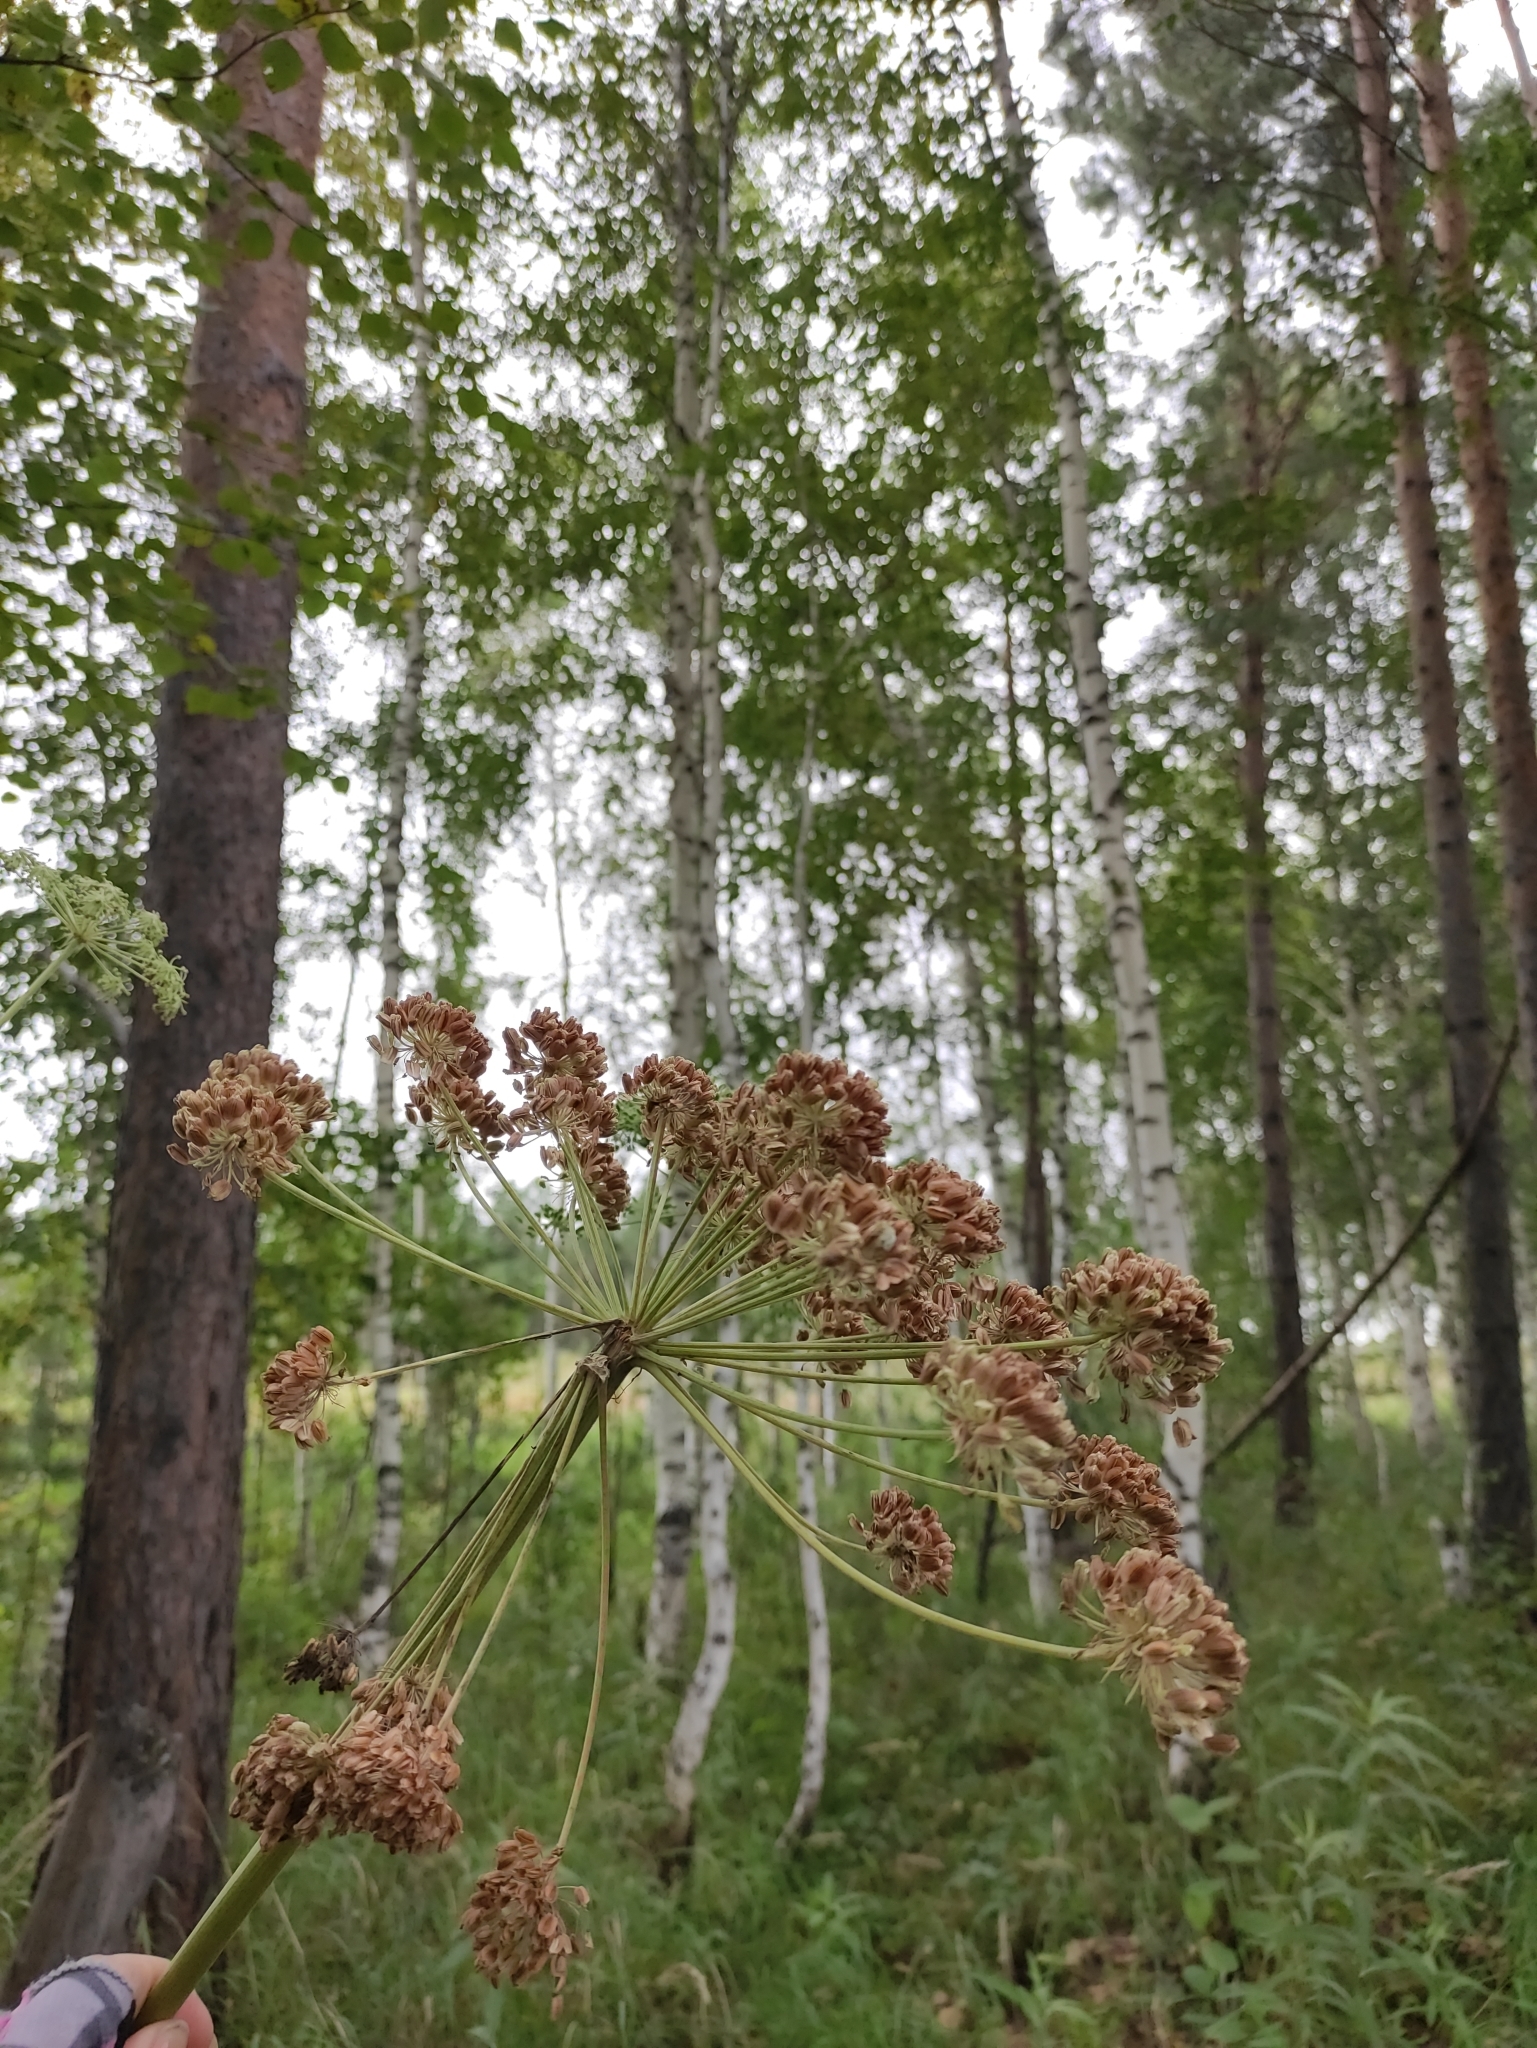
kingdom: Plantae
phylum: Tracheophyta
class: Magnoliopsida
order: Apiales
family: Apiaceae
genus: Angelica
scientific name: Angelica sylvestris
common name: Wild angelica
